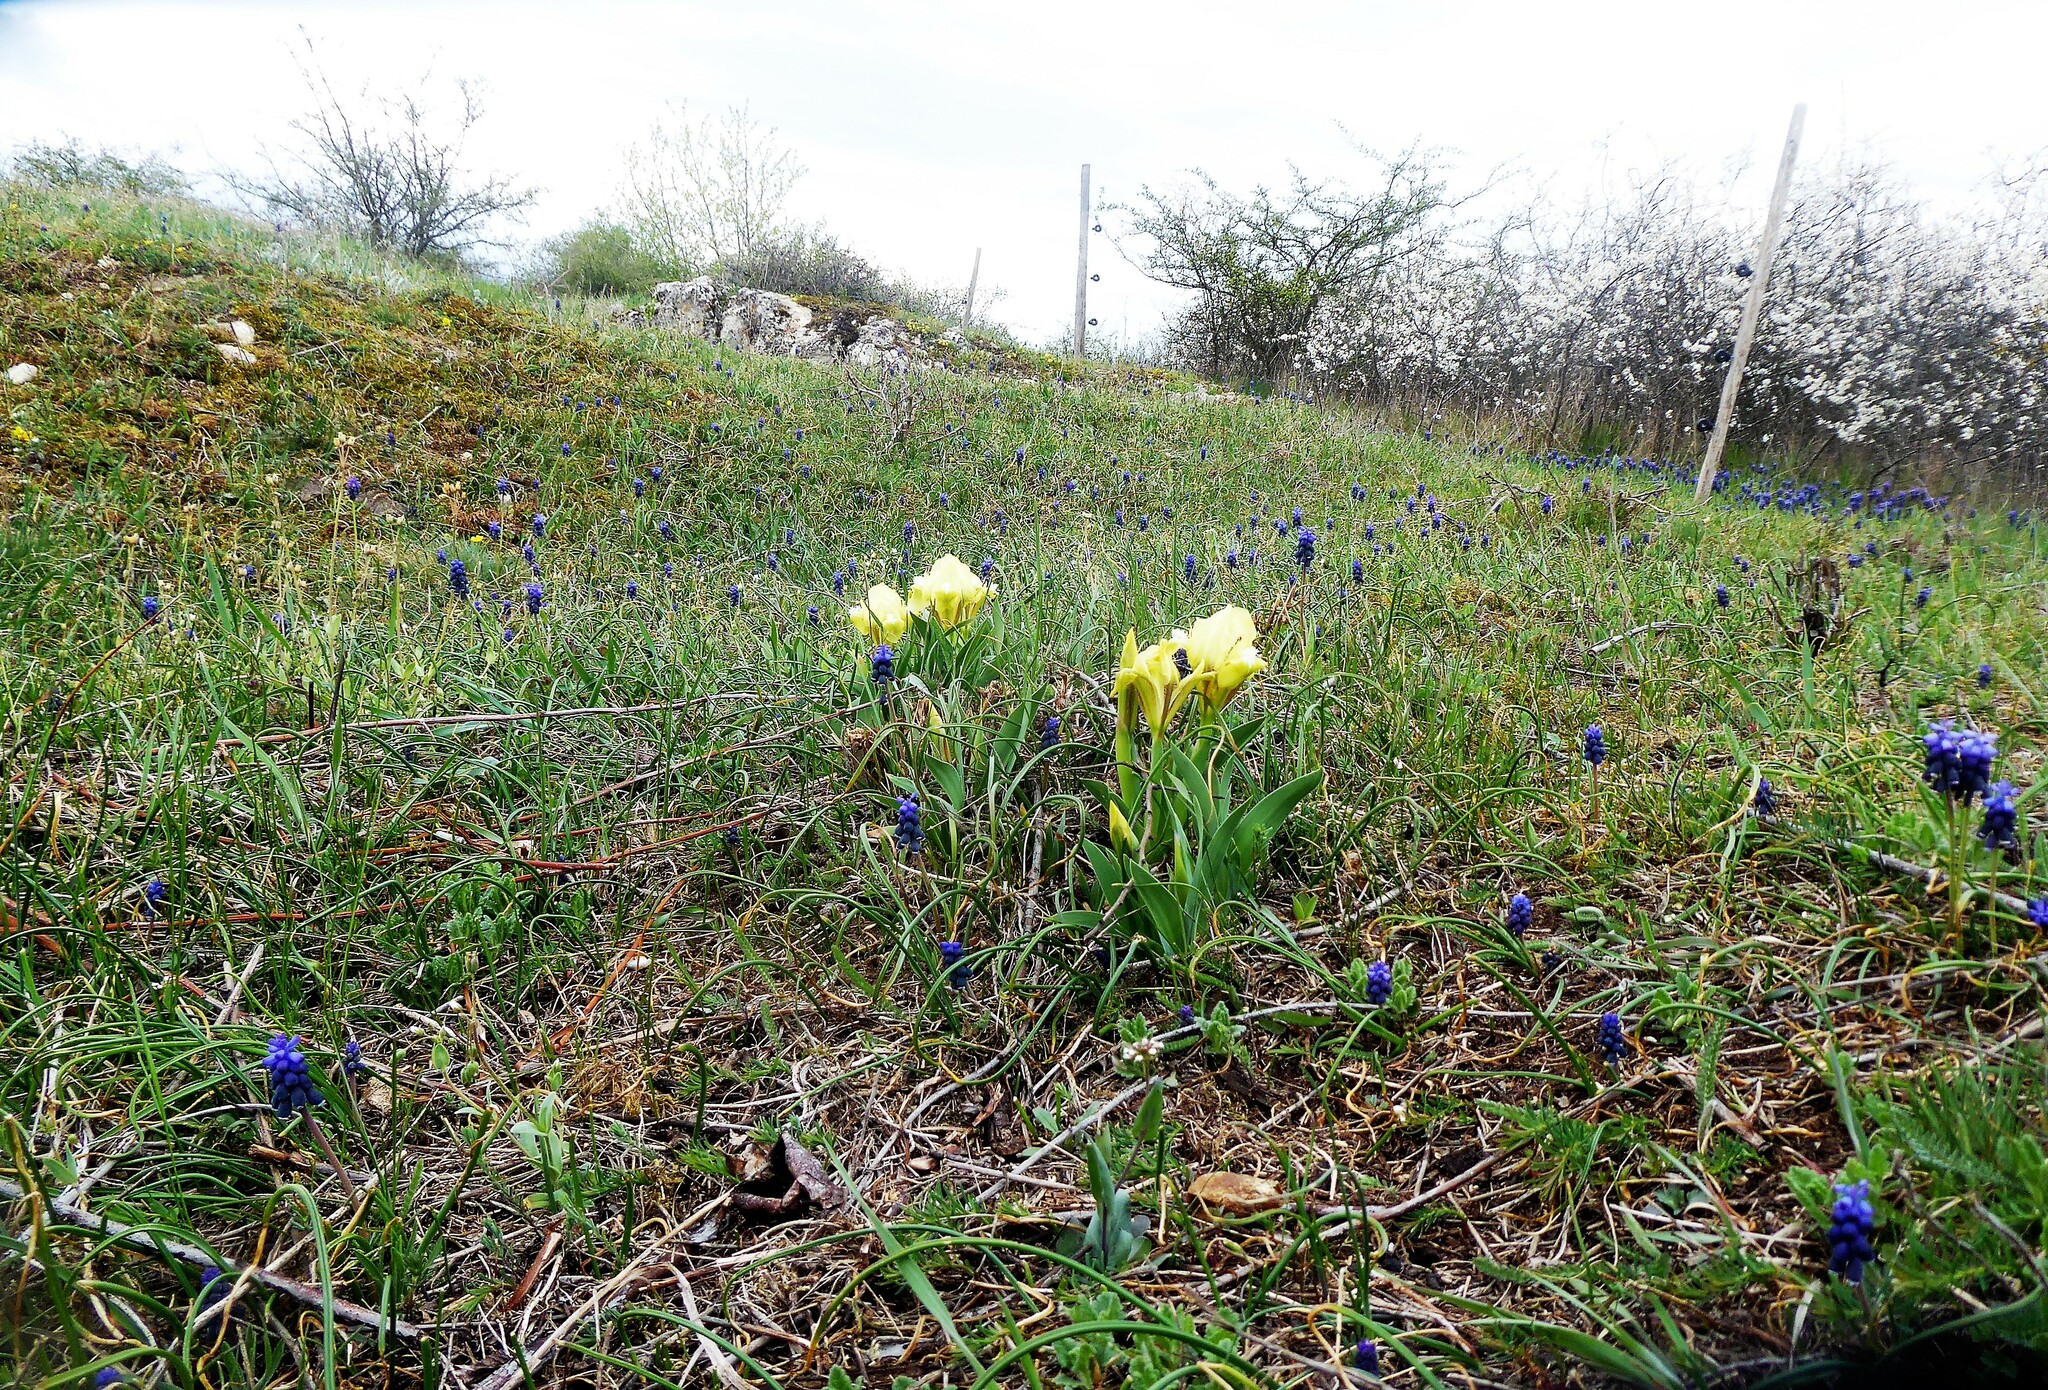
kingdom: Plantae
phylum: Tracheophyta
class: Liliopsida
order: Asparagales
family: Iridaceae
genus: Iris
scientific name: Iris pumila
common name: Dwarf iris
